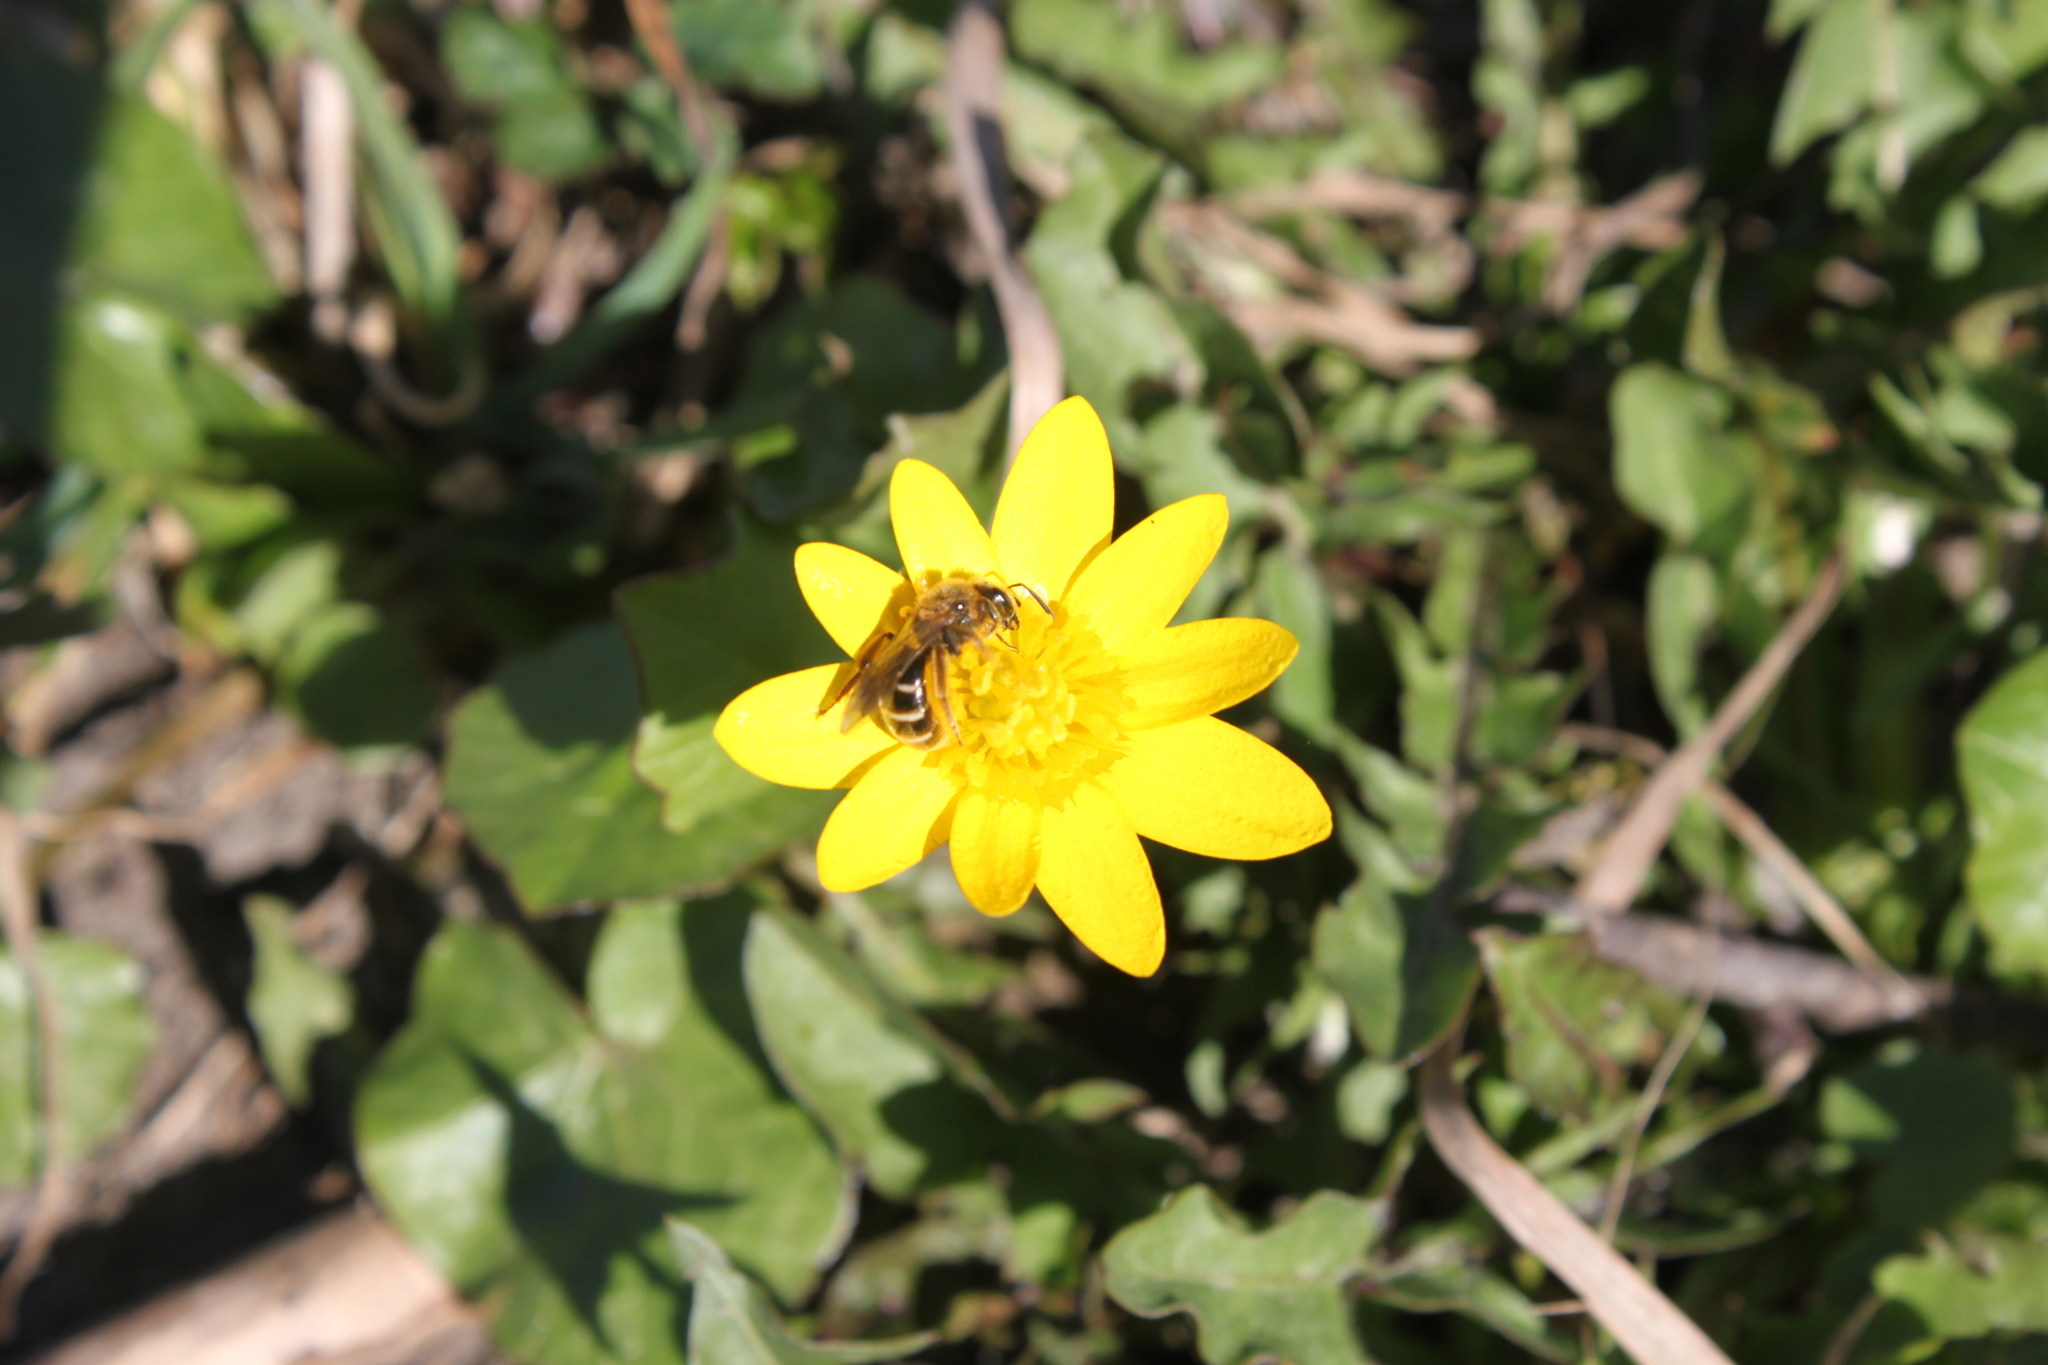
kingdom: Plantae
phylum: Tracheophyta
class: Magnoliopsida
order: Ranunculales
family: Ranunculaceae
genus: Ficaria
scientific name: Ficaria verna
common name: Lesser celandine
